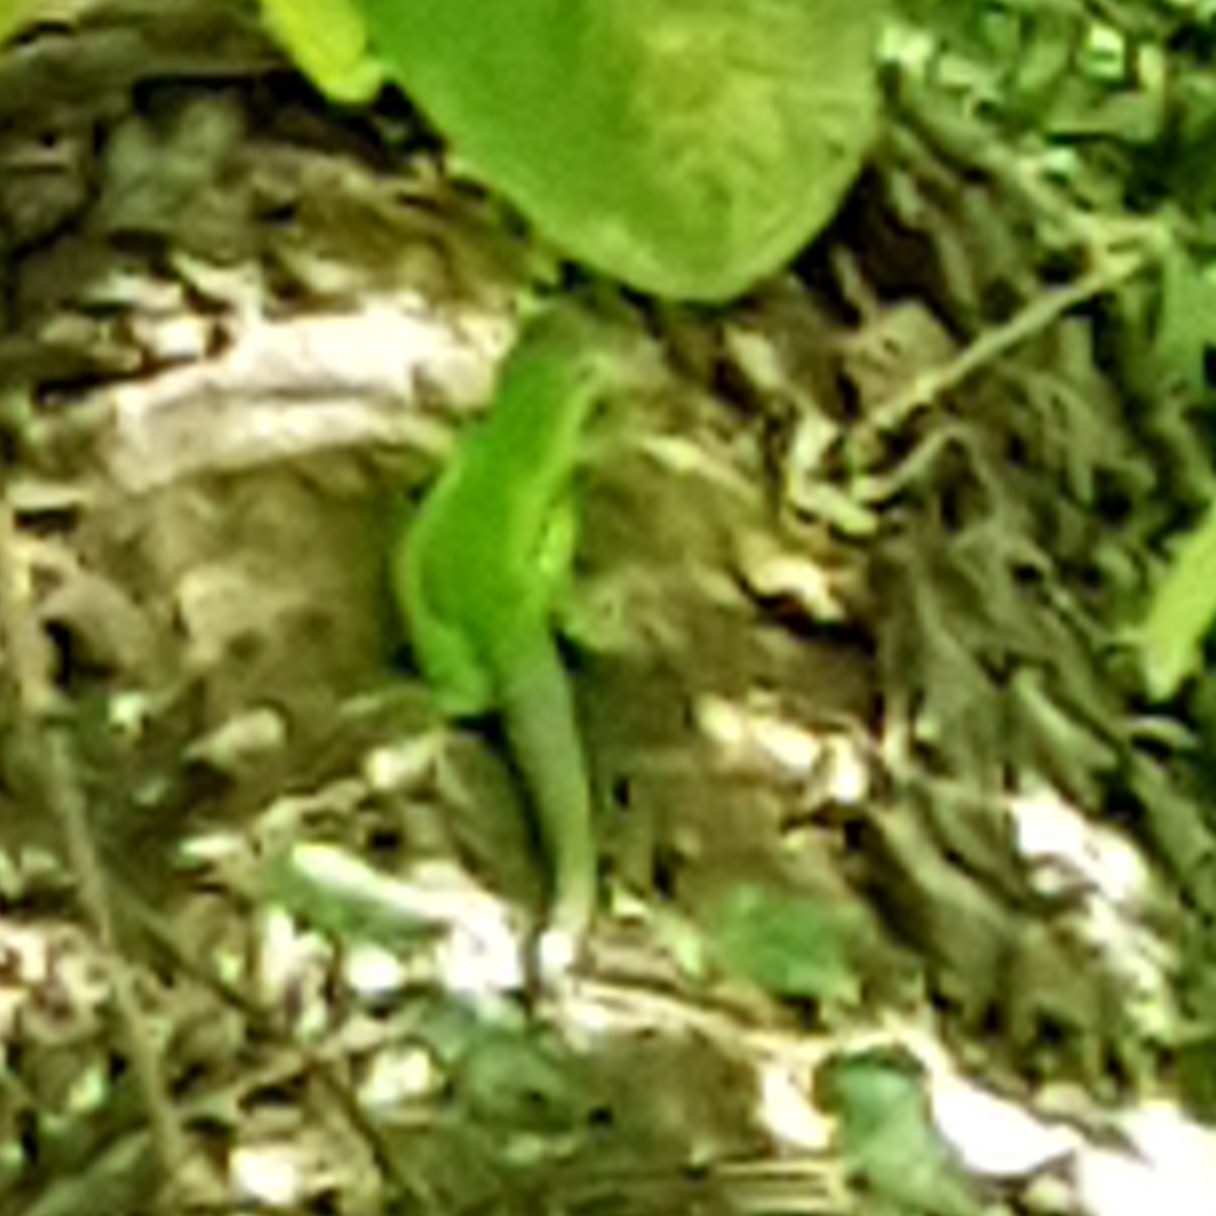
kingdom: Animalia
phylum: Chordata
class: Squamata
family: Lacertidae
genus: Lacerta
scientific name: Lacerta bilineata
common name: Western green lizard
